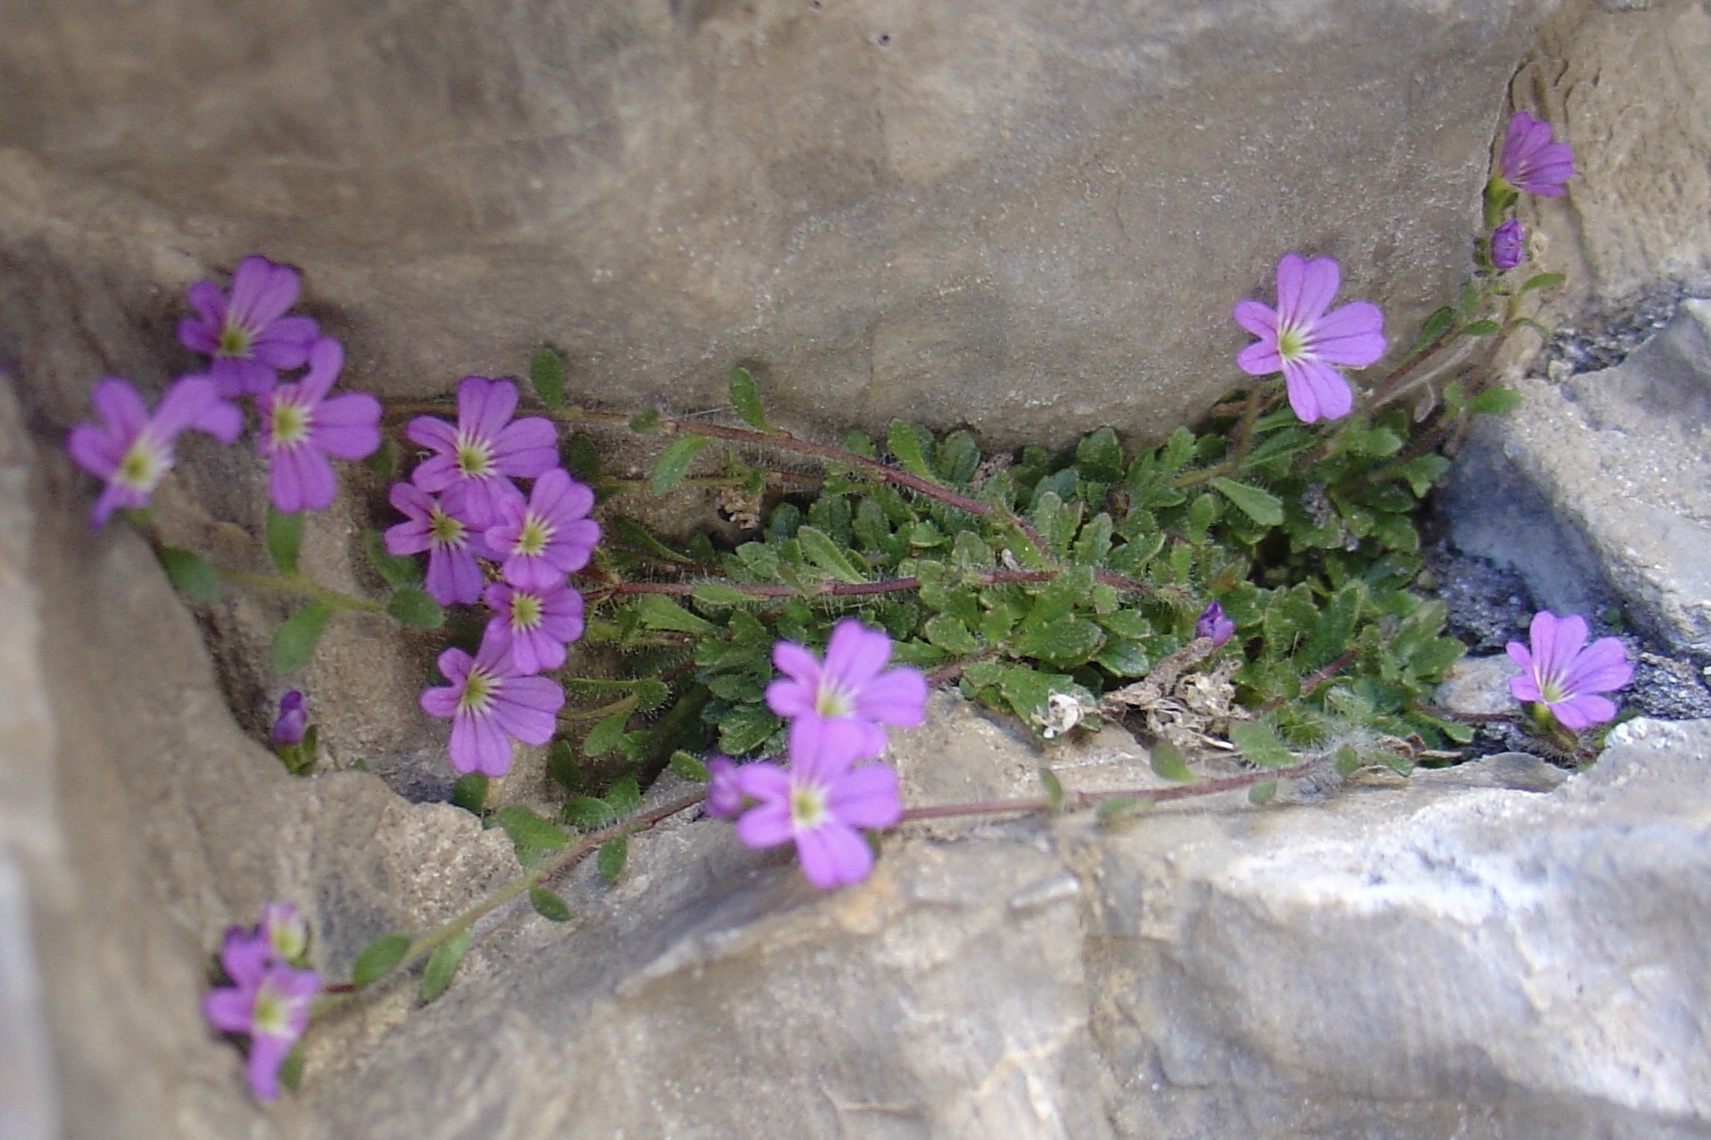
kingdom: Plantae
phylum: Tracheophyta
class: Magnoliopsida
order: Lamiales
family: Plantaginaceae
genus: Erinus
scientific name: Erinus alpinus
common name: Fairy foxglove
